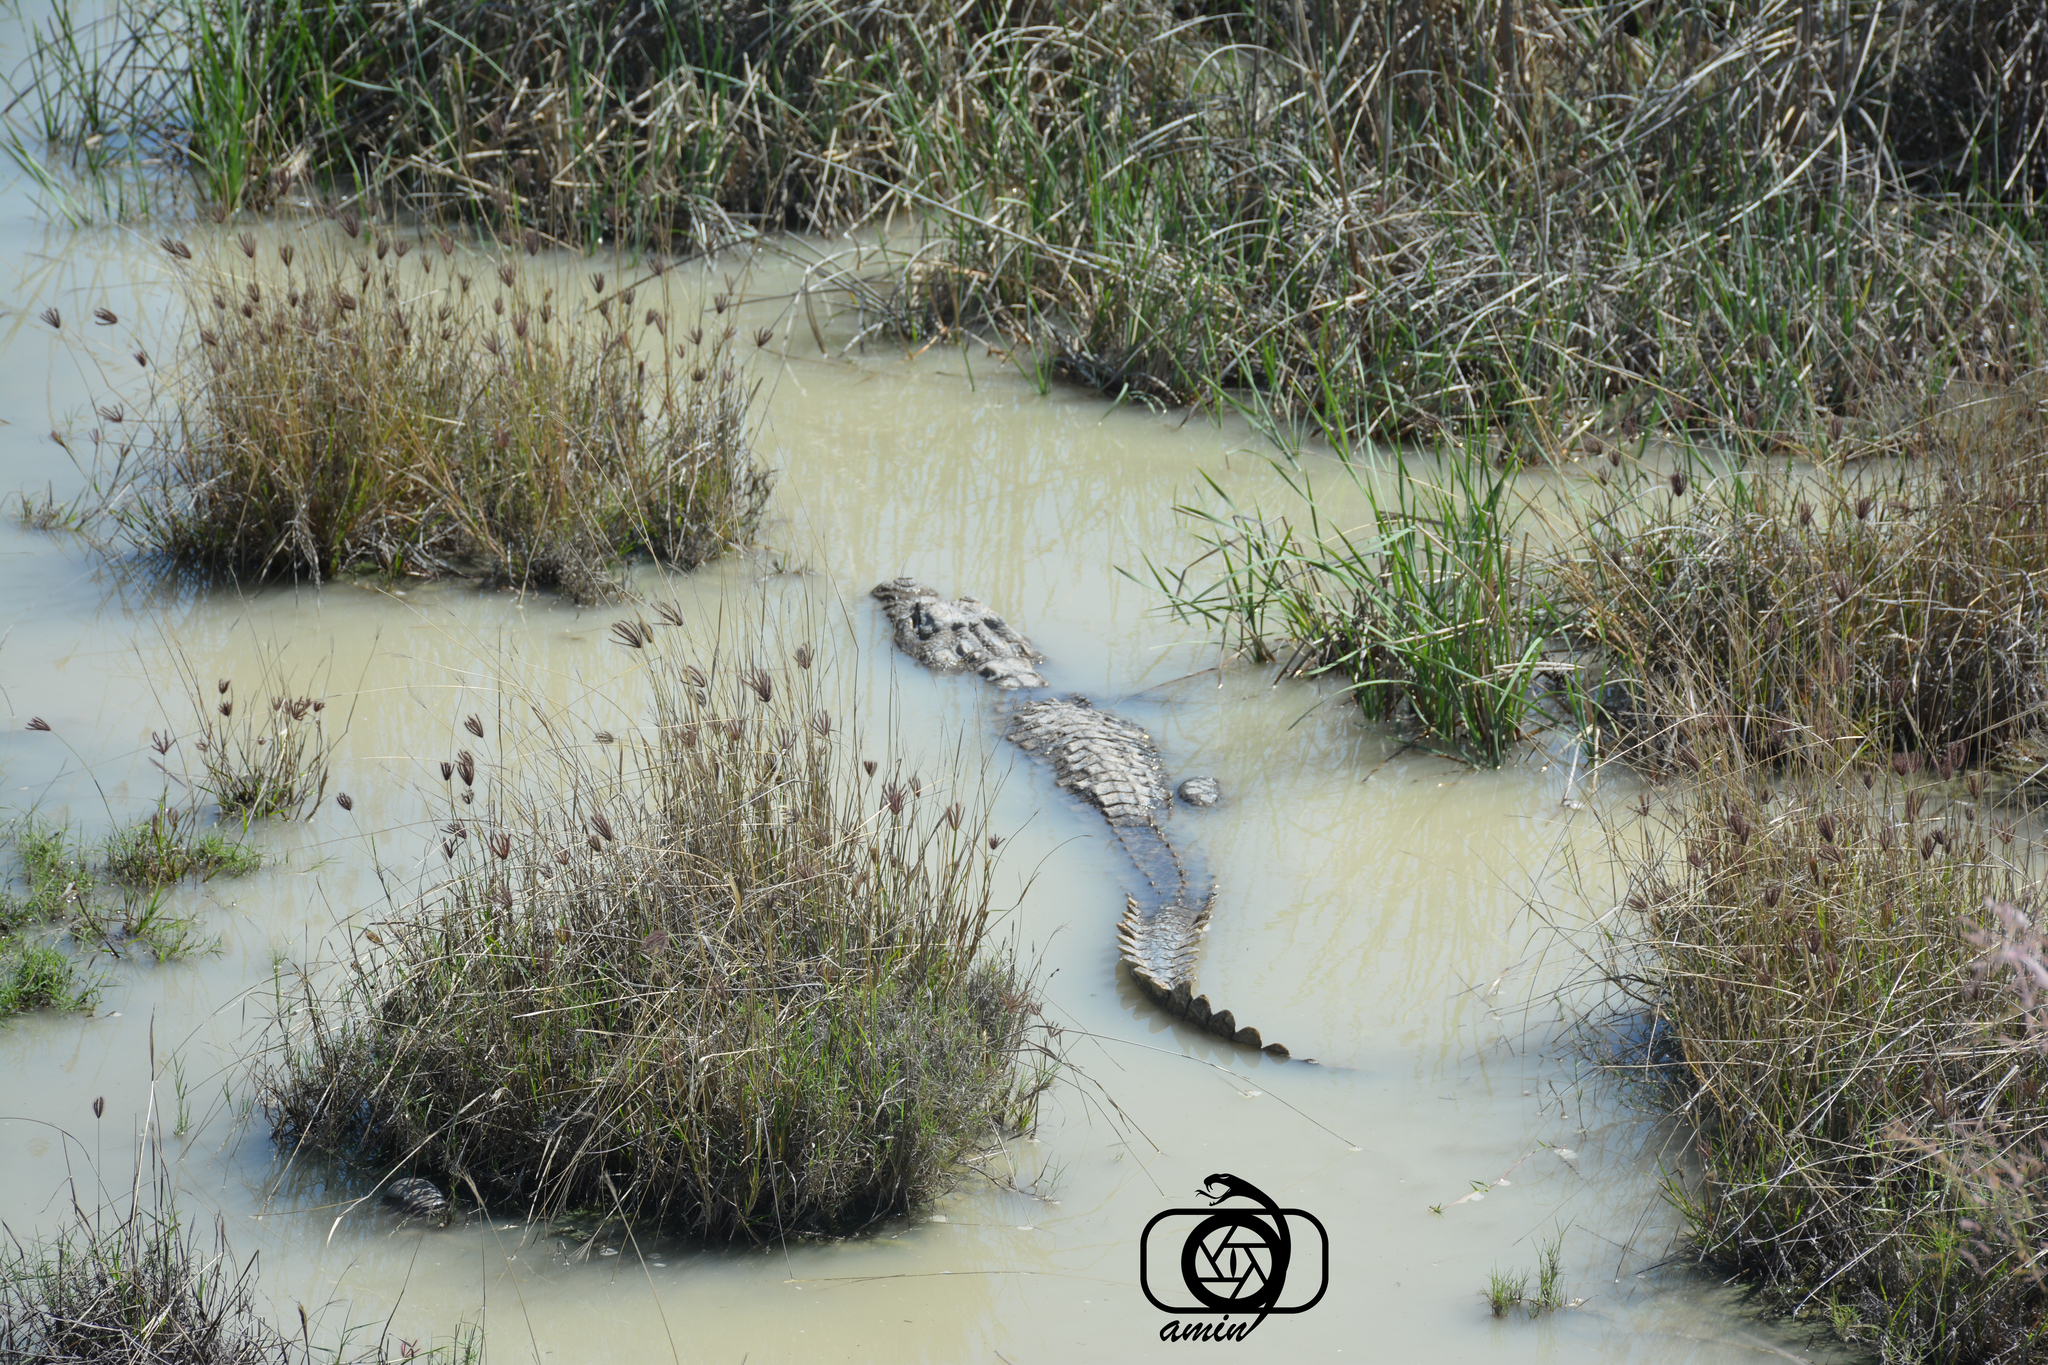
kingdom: Animalia
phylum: Chordata
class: Crocodylia
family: Crocodylidae
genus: Crocodylus
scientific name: Crocodylus palustris
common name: Mugger crocodile
